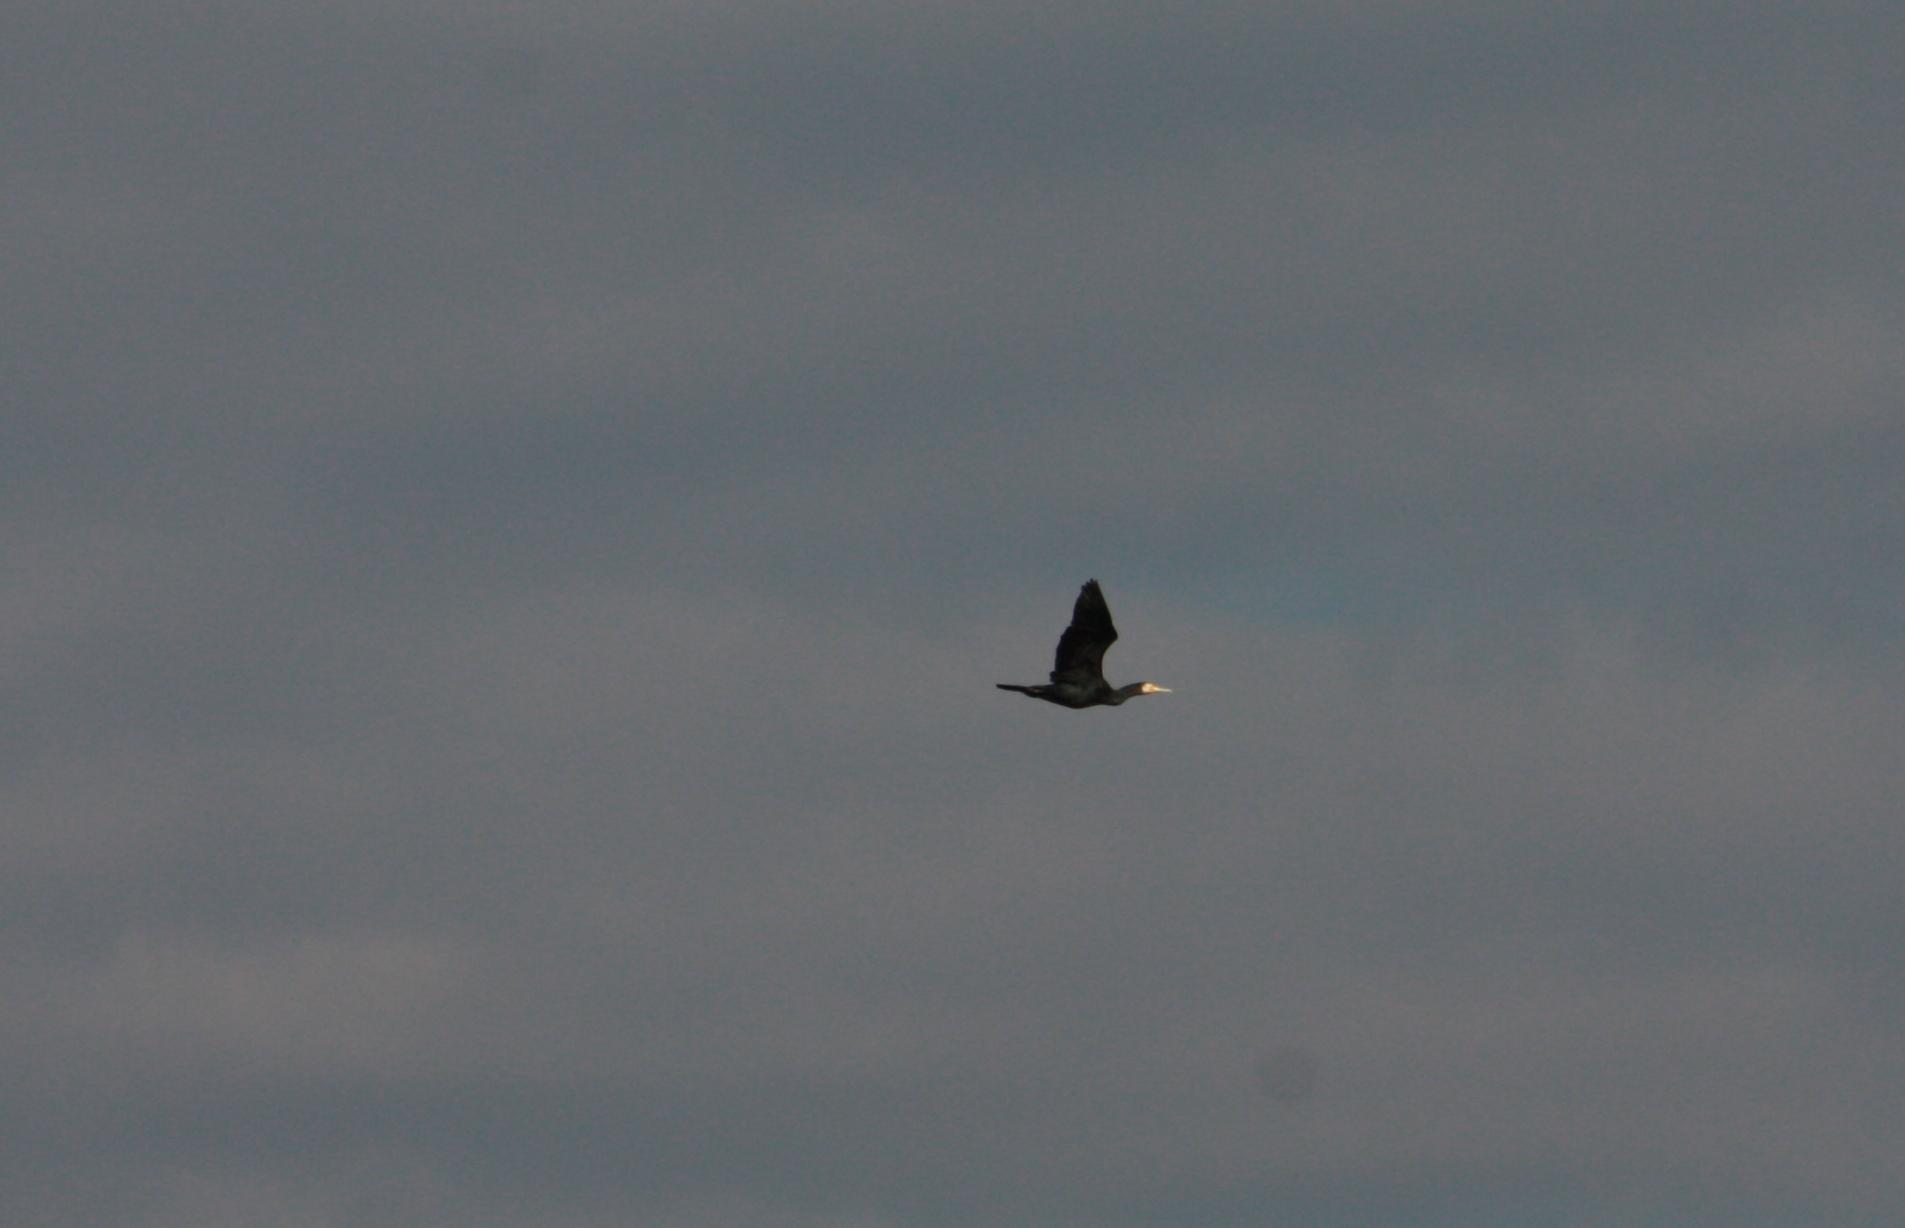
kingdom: Animalia
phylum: Chordata
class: Aves
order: Suliformes
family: Phalacrocoracidae
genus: Phalacrocorax
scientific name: Phalacrocorax carbo
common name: Great cormorant
